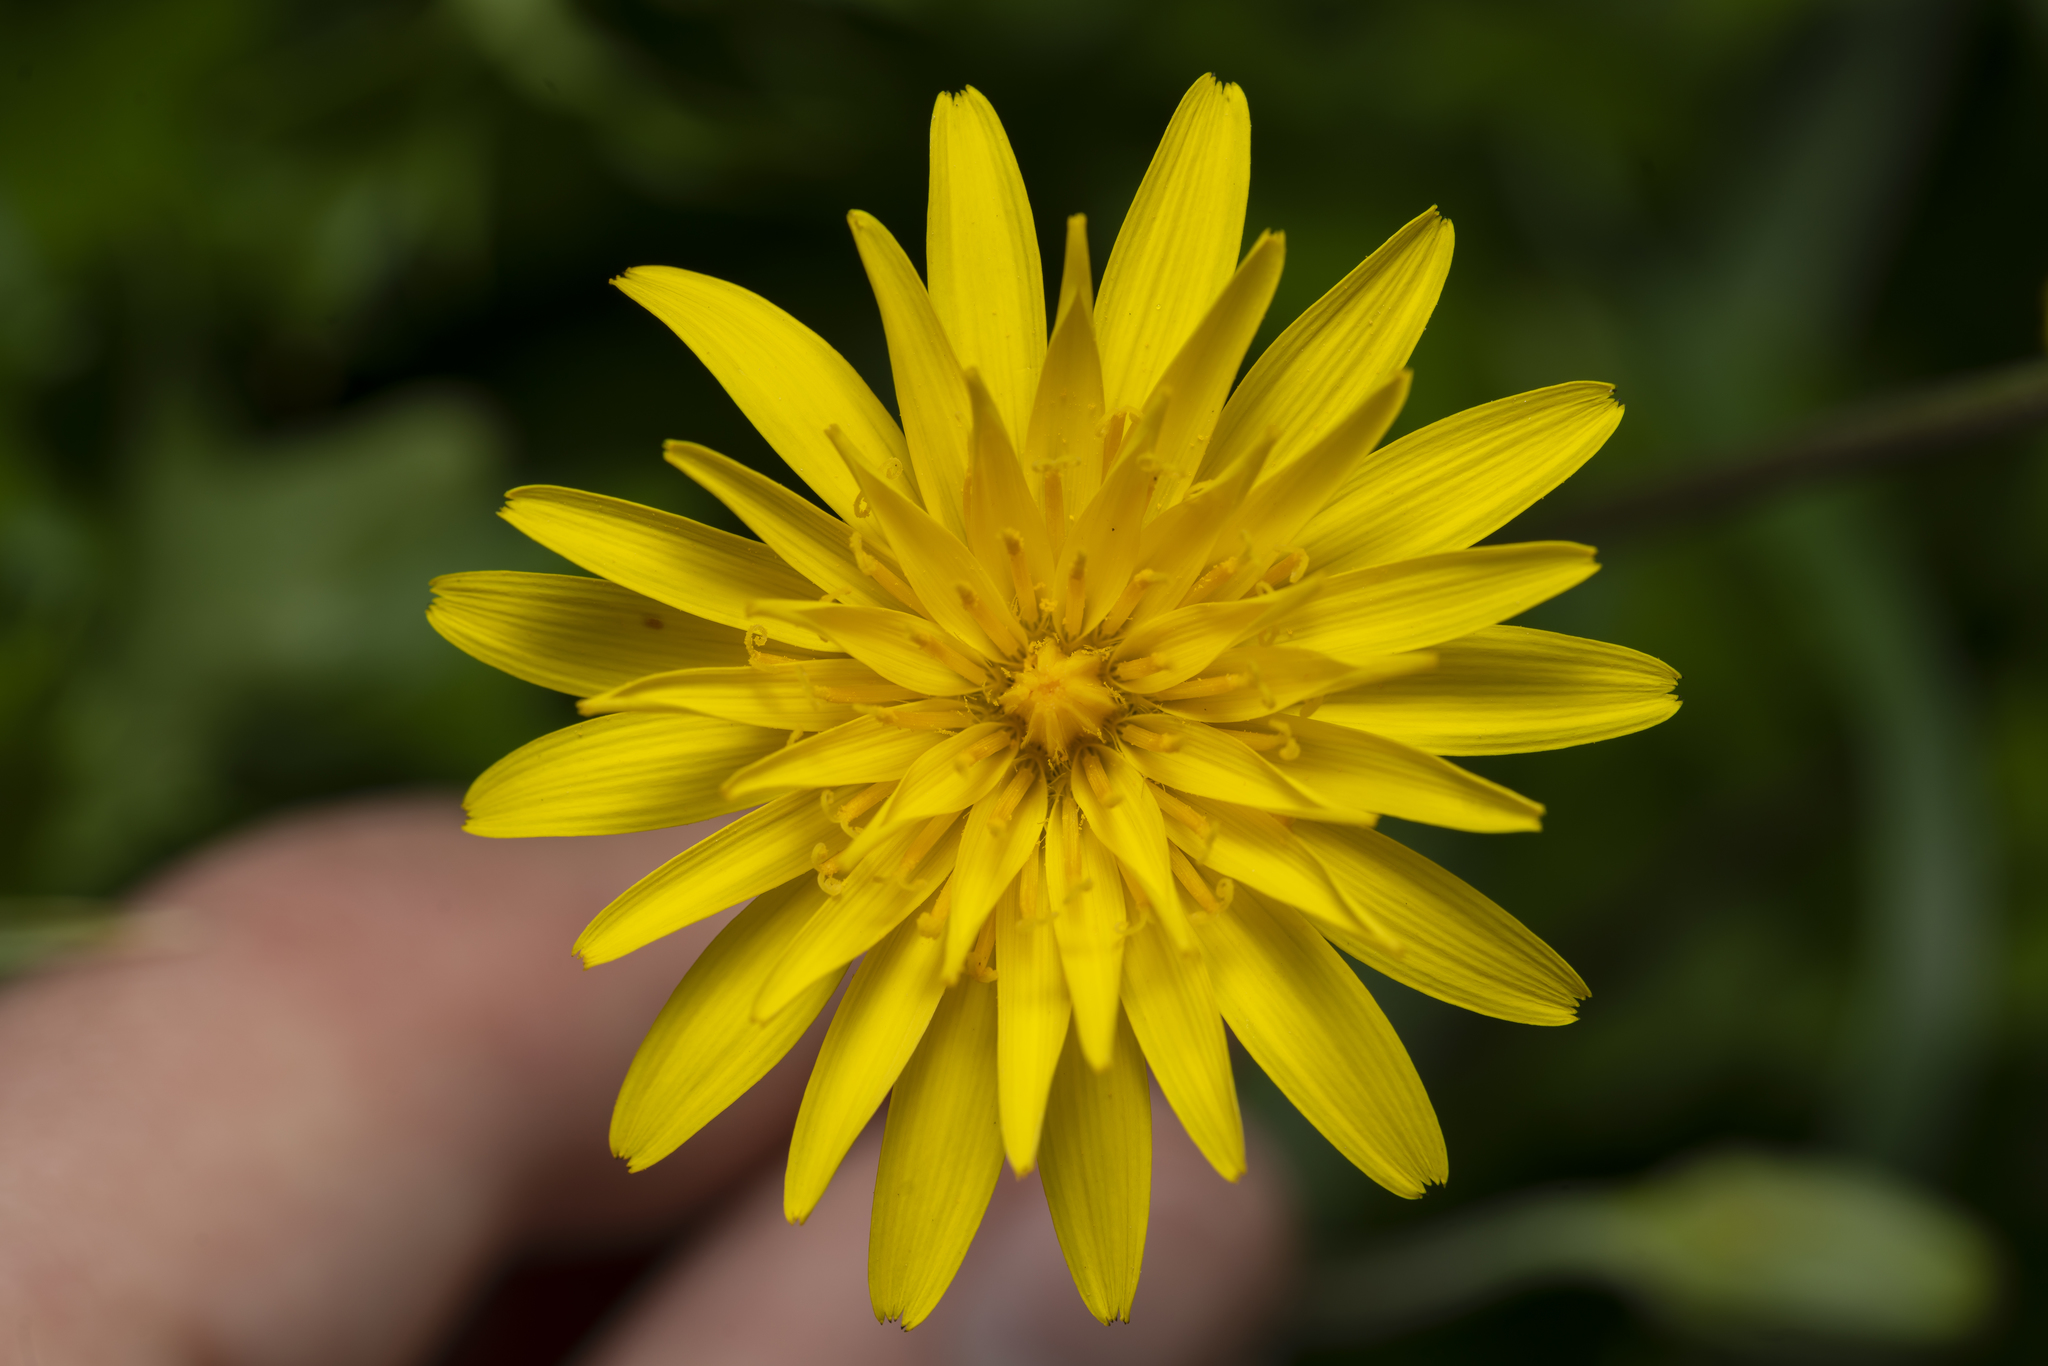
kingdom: Plantae
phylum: Tracheophyta
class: Magnoliopsida
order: Asterales
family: Asteraceae
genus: Hyoseris
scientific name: Hyoseris radiata
